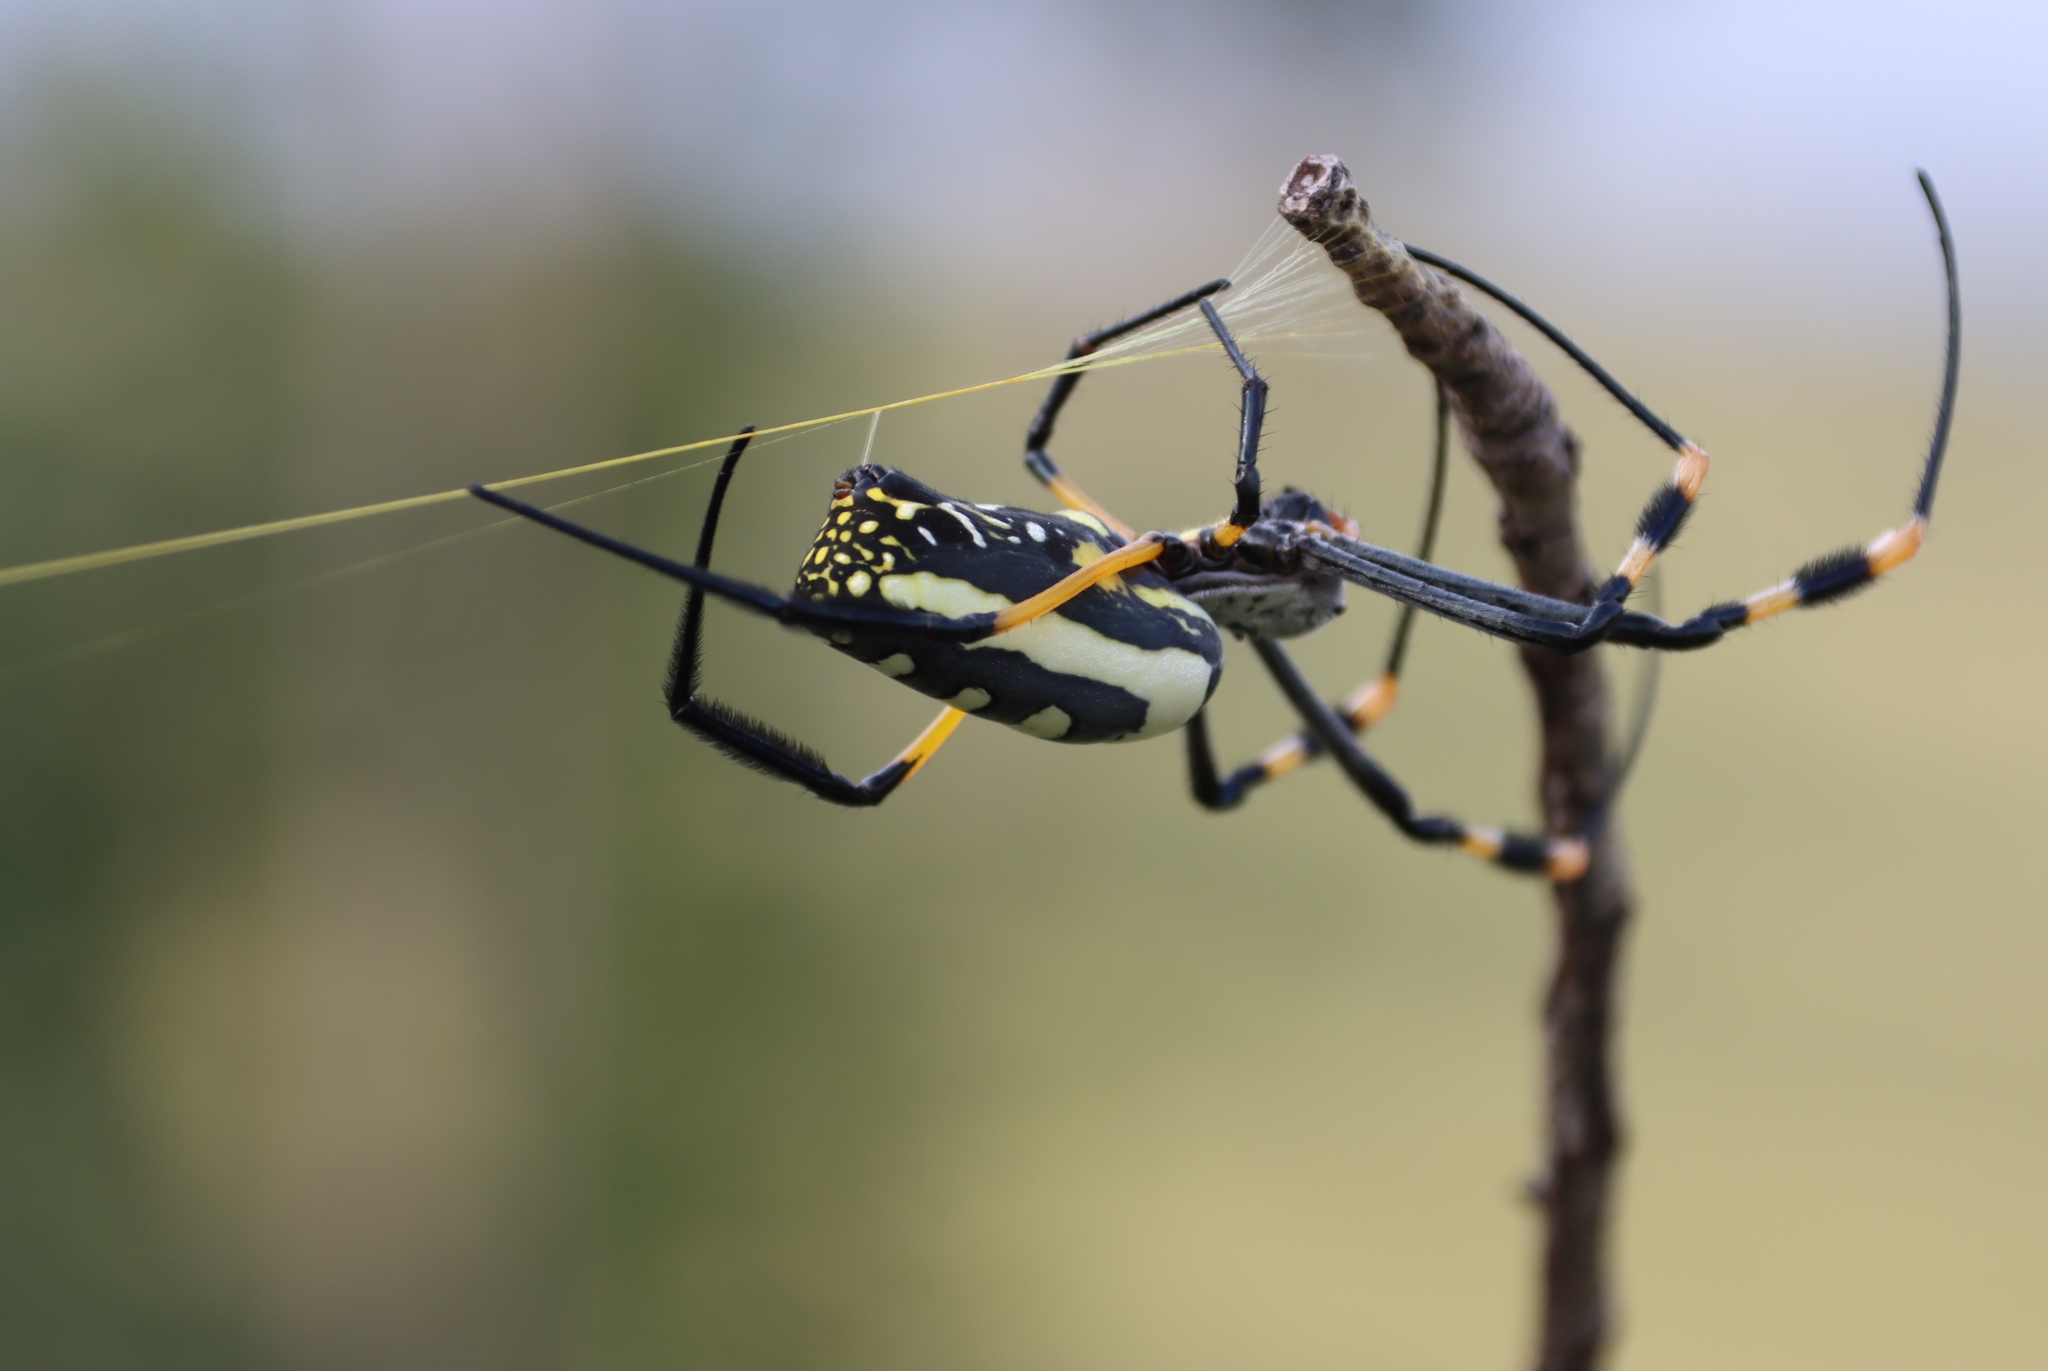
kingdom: Animalia
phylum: Arthropoda
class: Arachnida
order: Araneae
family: Araneidae
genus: Trichonephila
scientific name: Trichonephila senegalensis
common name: Banded golden orb weaver
